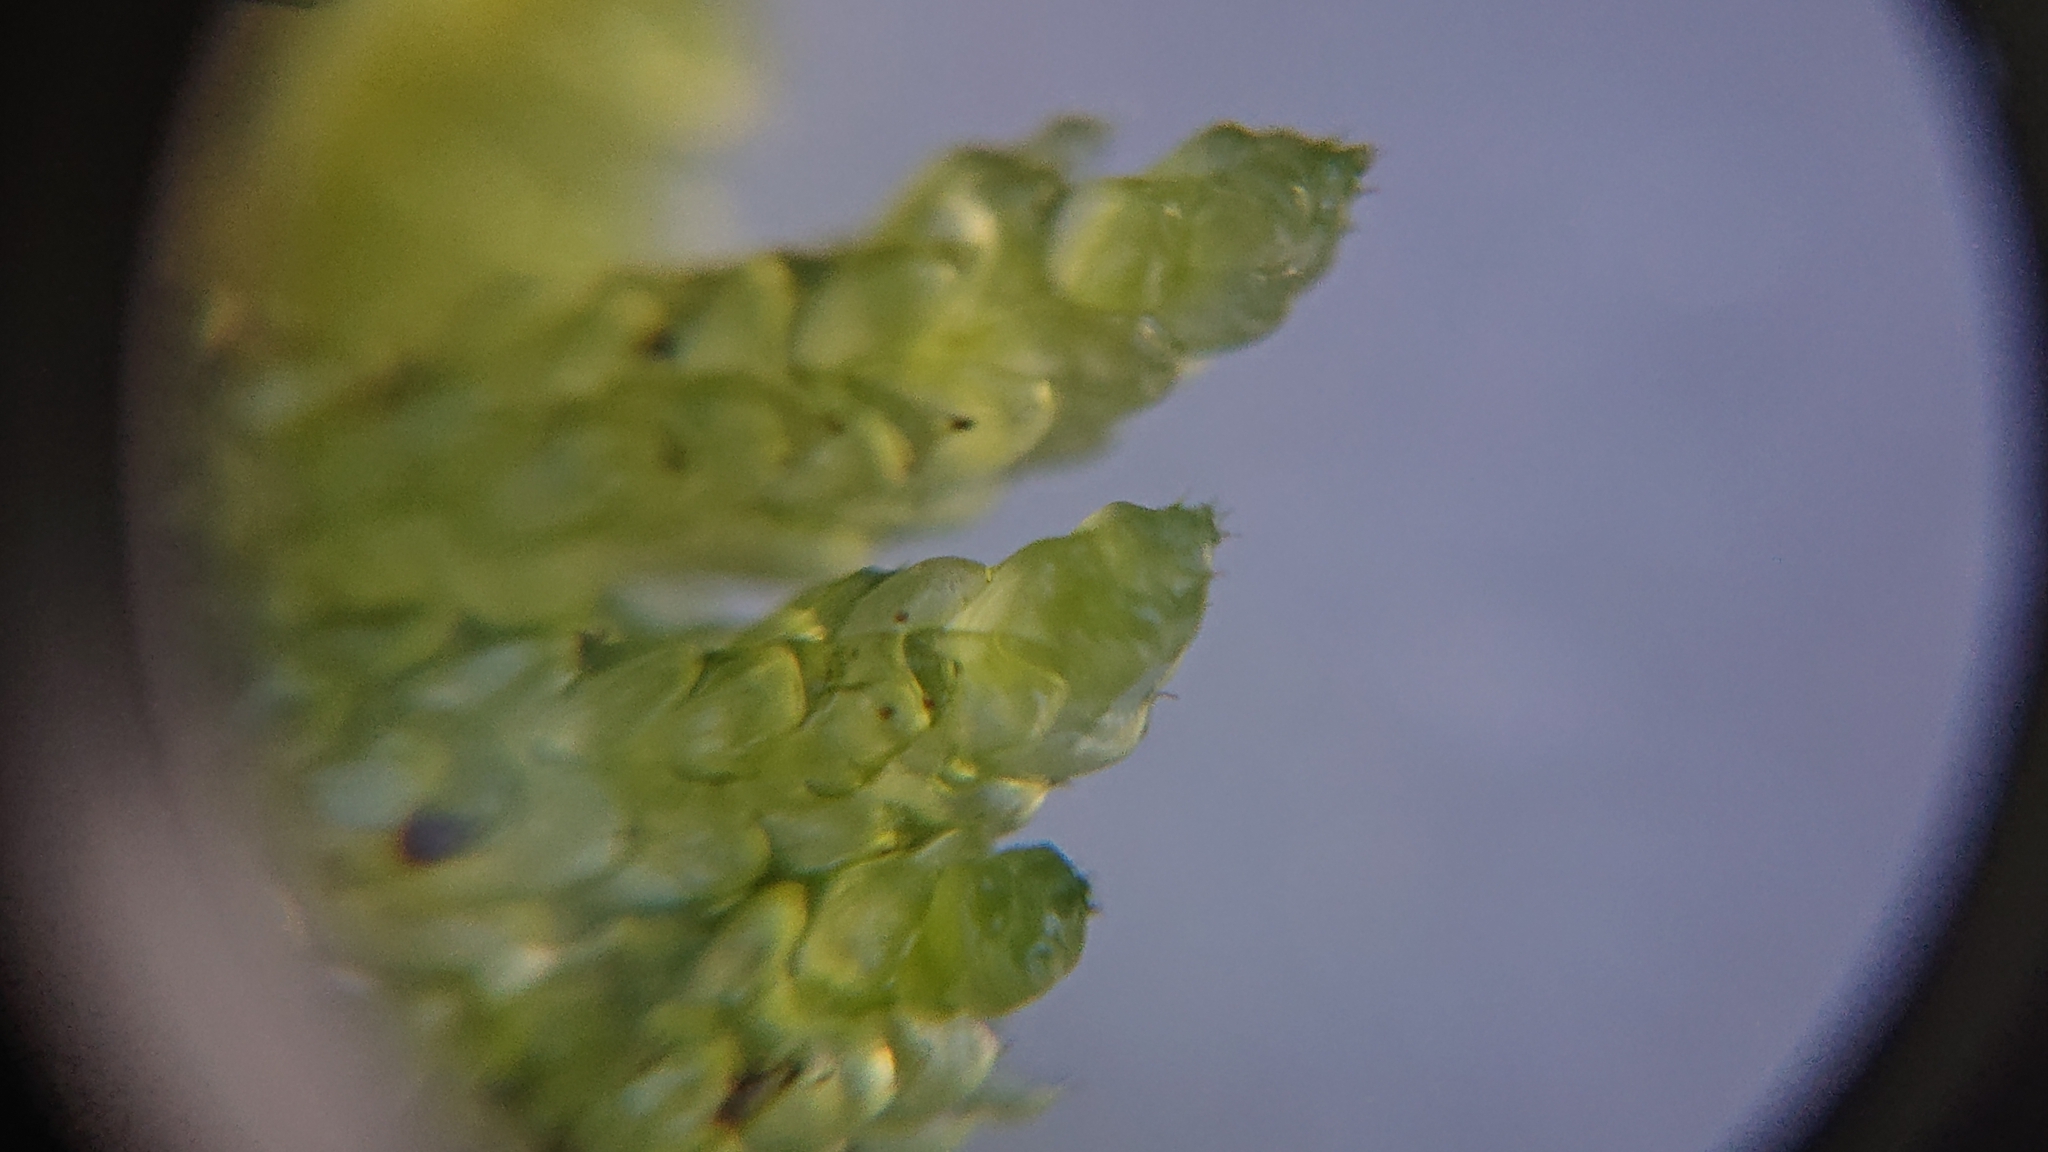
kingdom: Plantae
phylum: Bryophyta
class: Bryopsida
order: Hypnales
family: Brachytheciaceae
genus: Pseudoscleropodium
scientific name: Pseudoscleropodium purum
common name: Neat feather-moss
